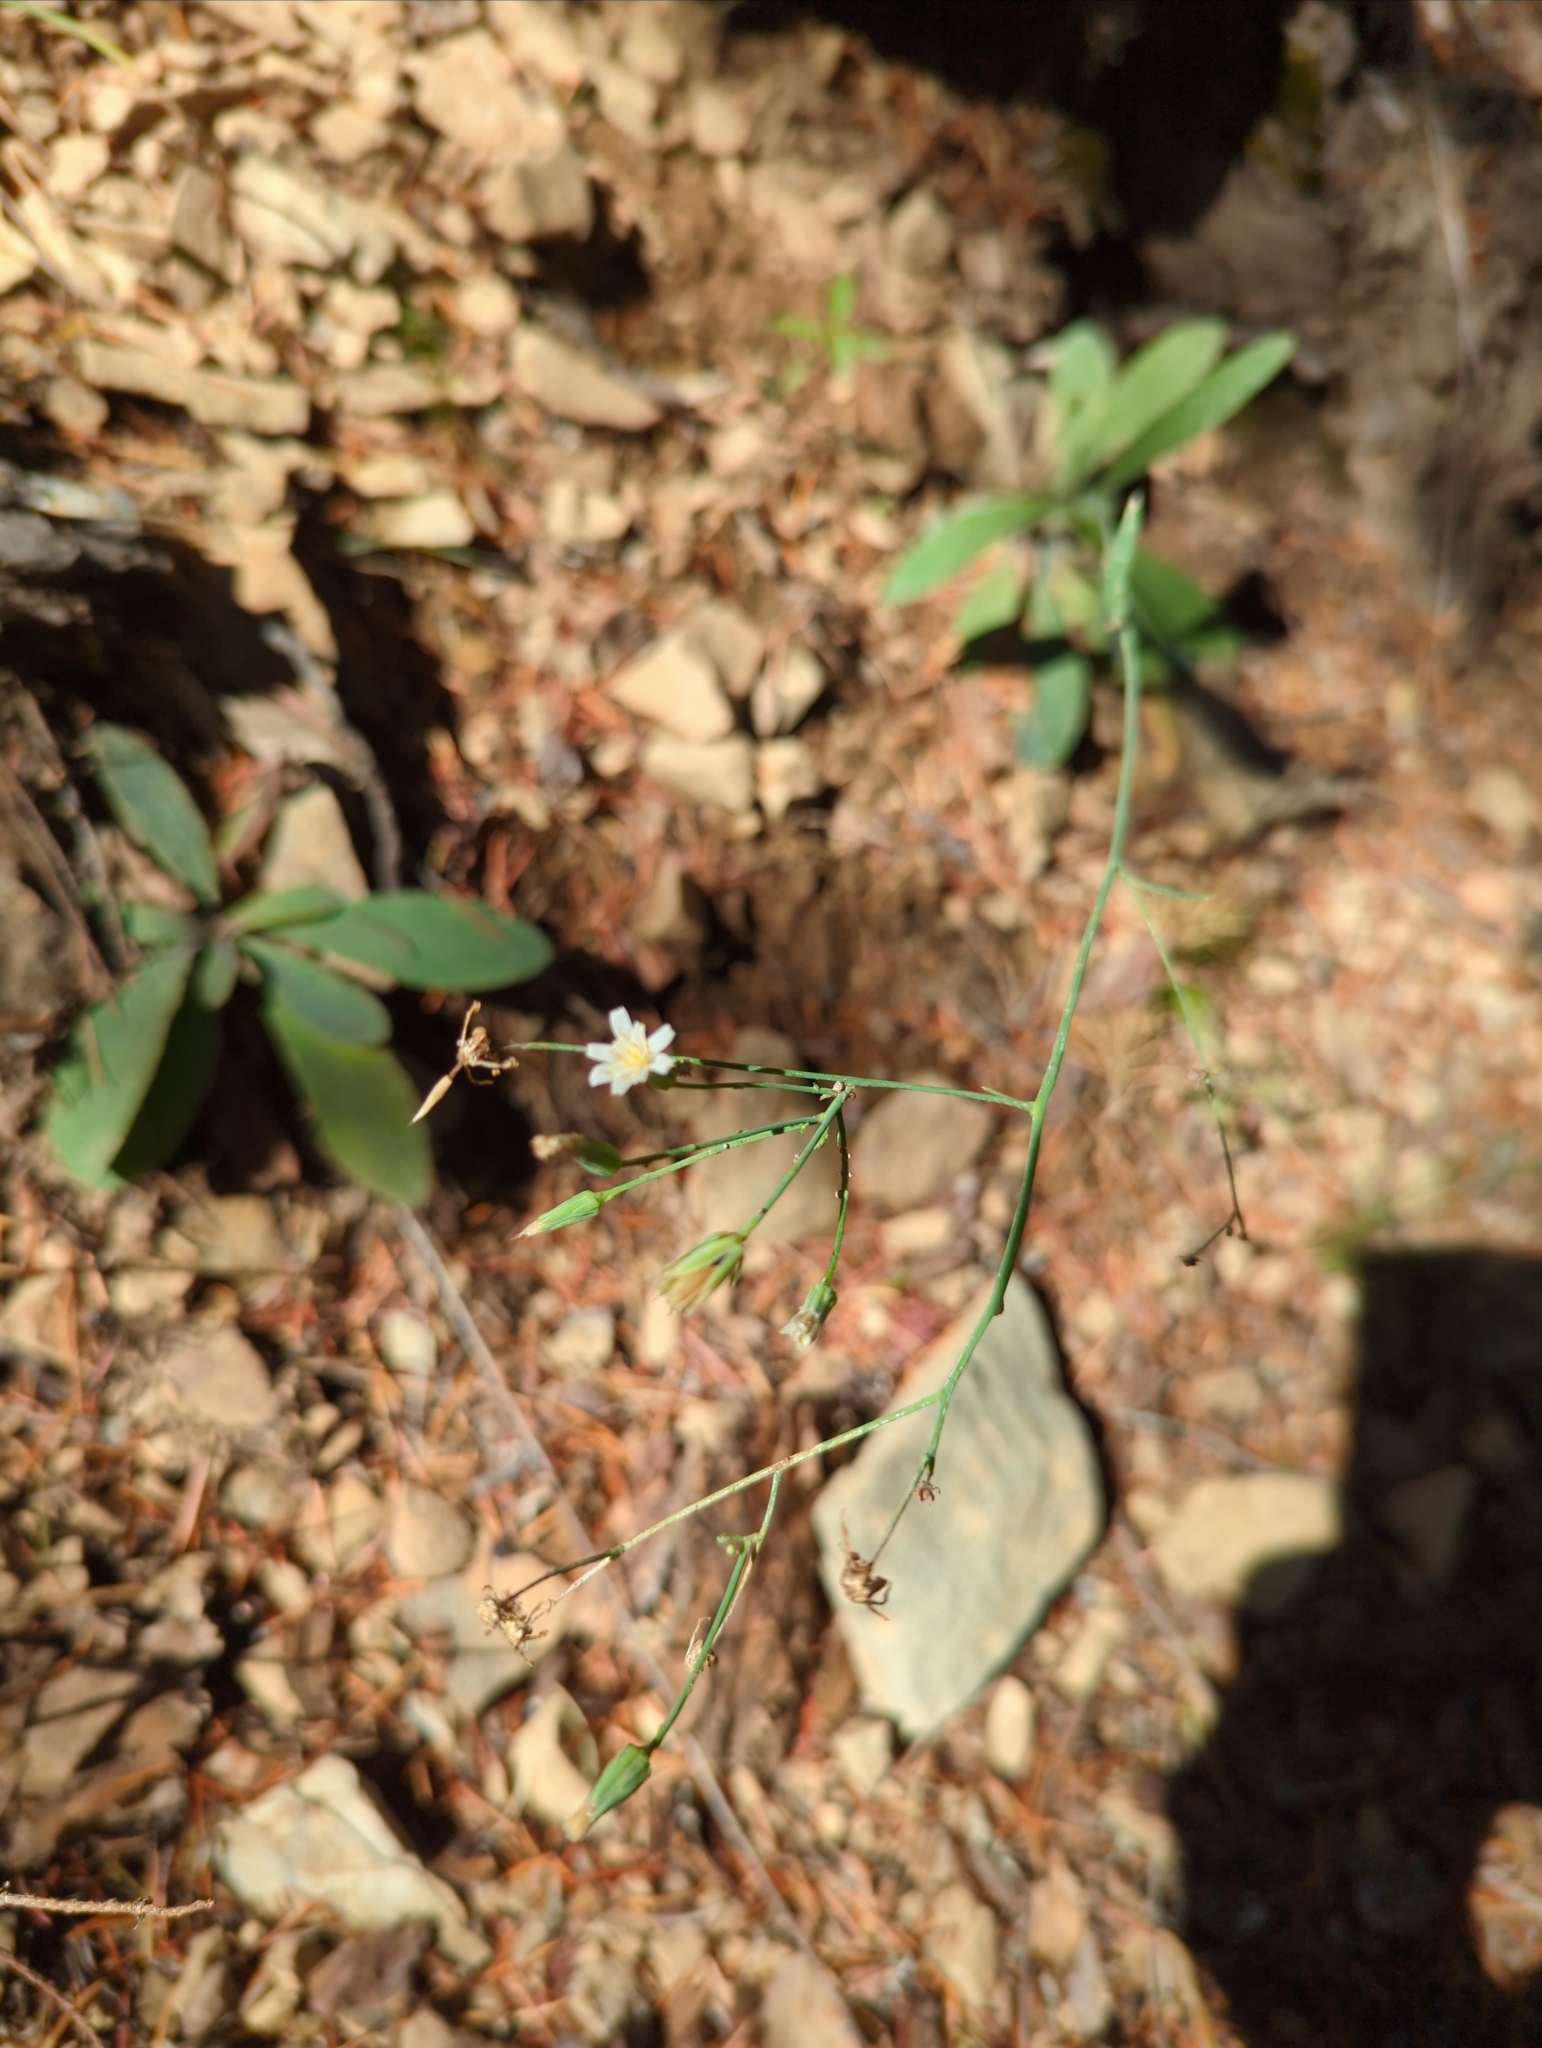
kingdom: Plantae
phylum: Tracheophyta
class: Magnoliopsida
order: Asterales
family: Asteraceae
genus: Hieracium
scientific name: Hieracium albiflorum
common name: White hawkweed
